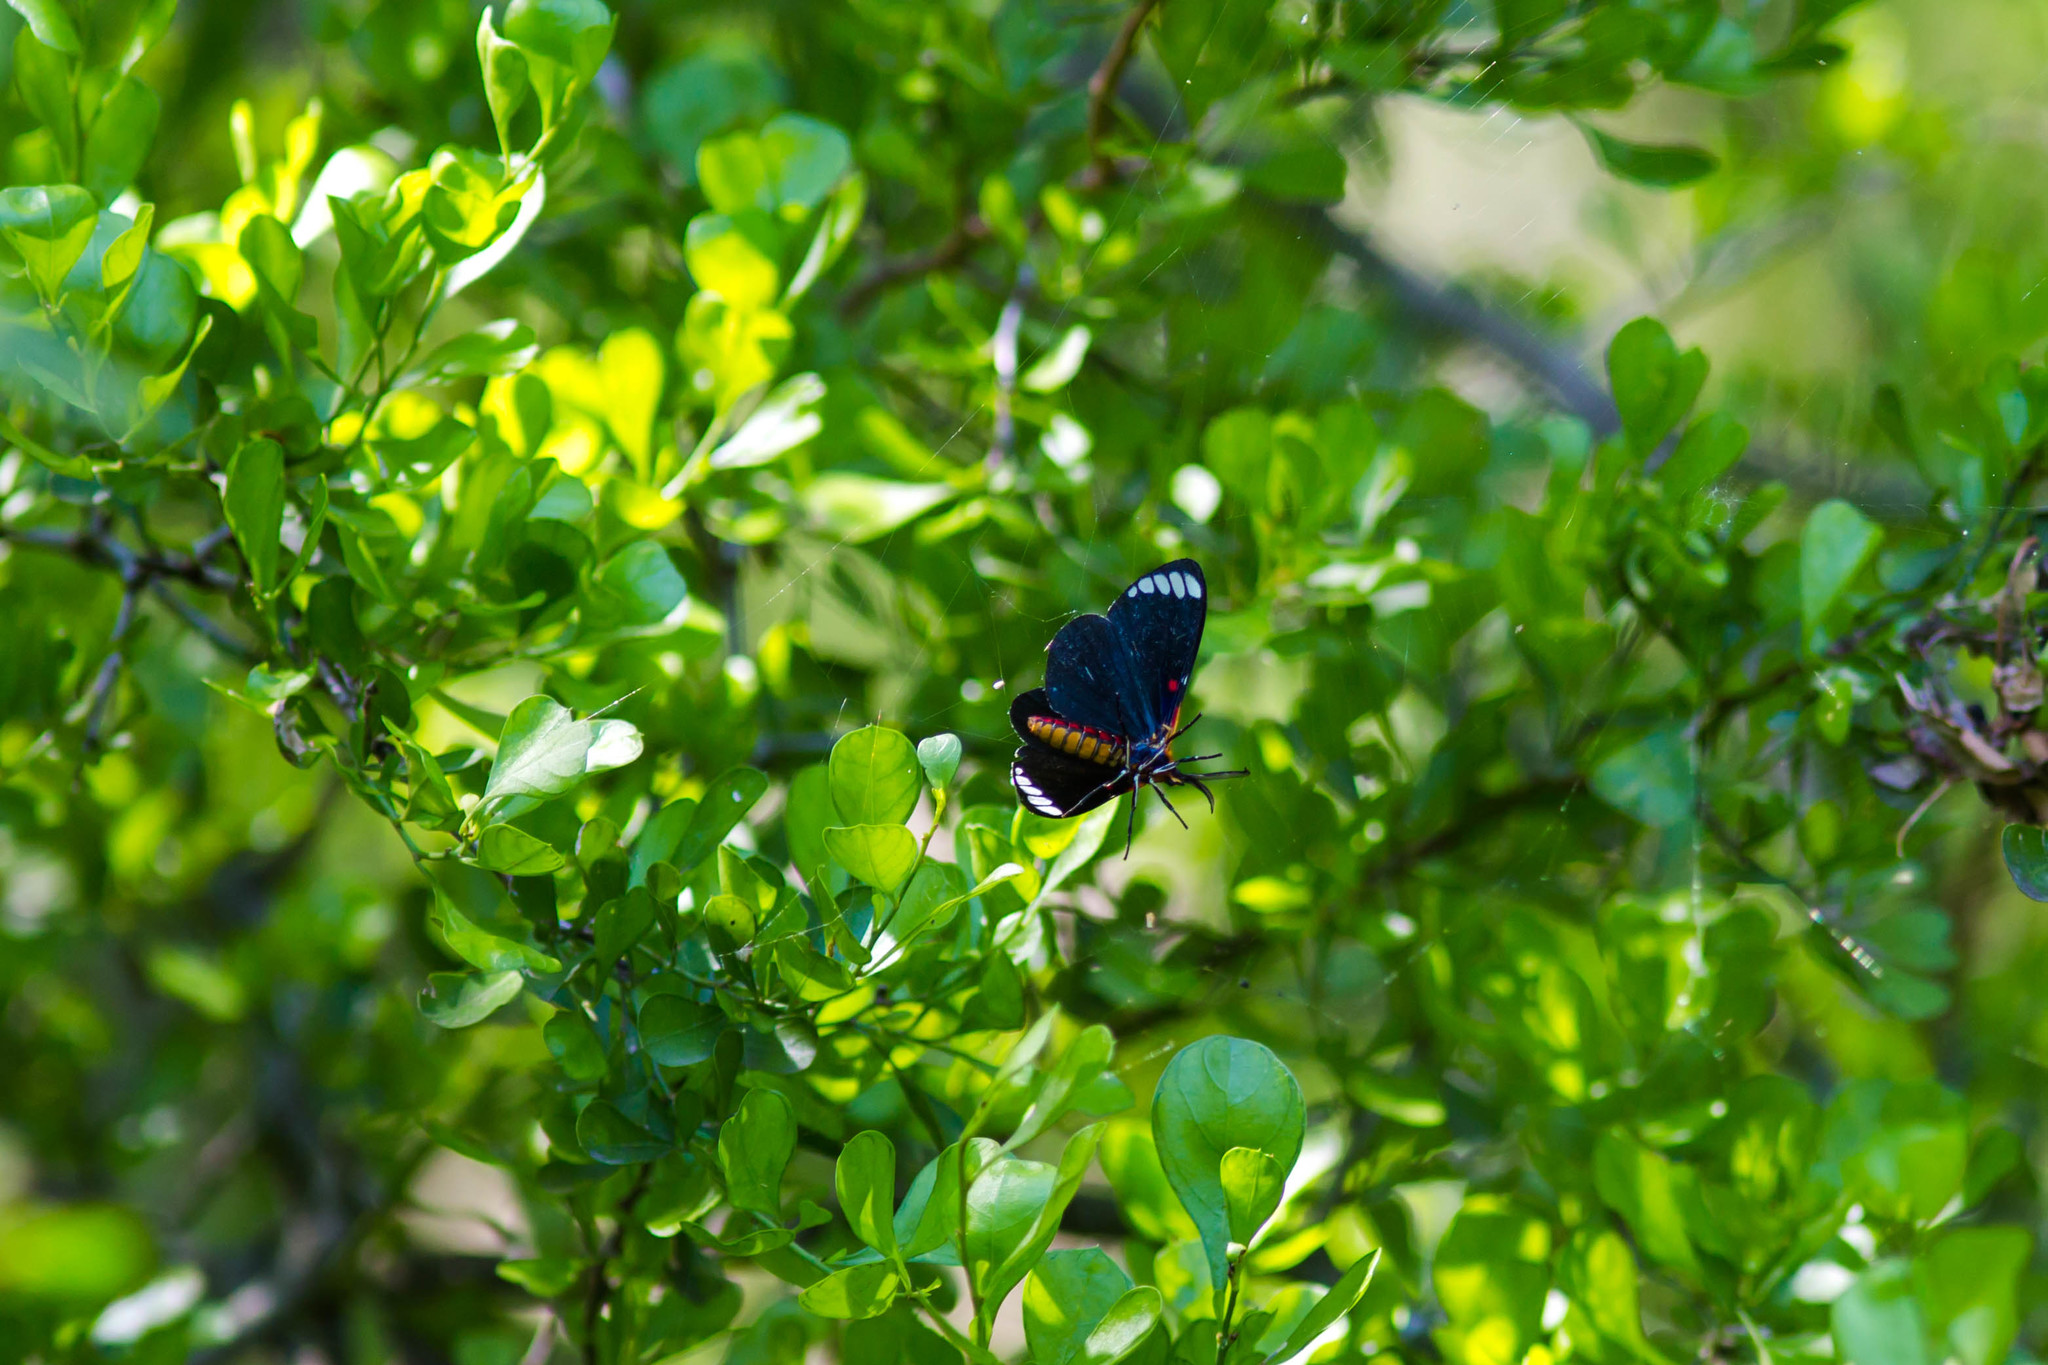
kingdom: Animalia
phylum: Arthropoda
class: Insecta
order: Lepidoptera
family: Erebidae
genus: Phaloesia
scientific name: Phaloesia saucia
